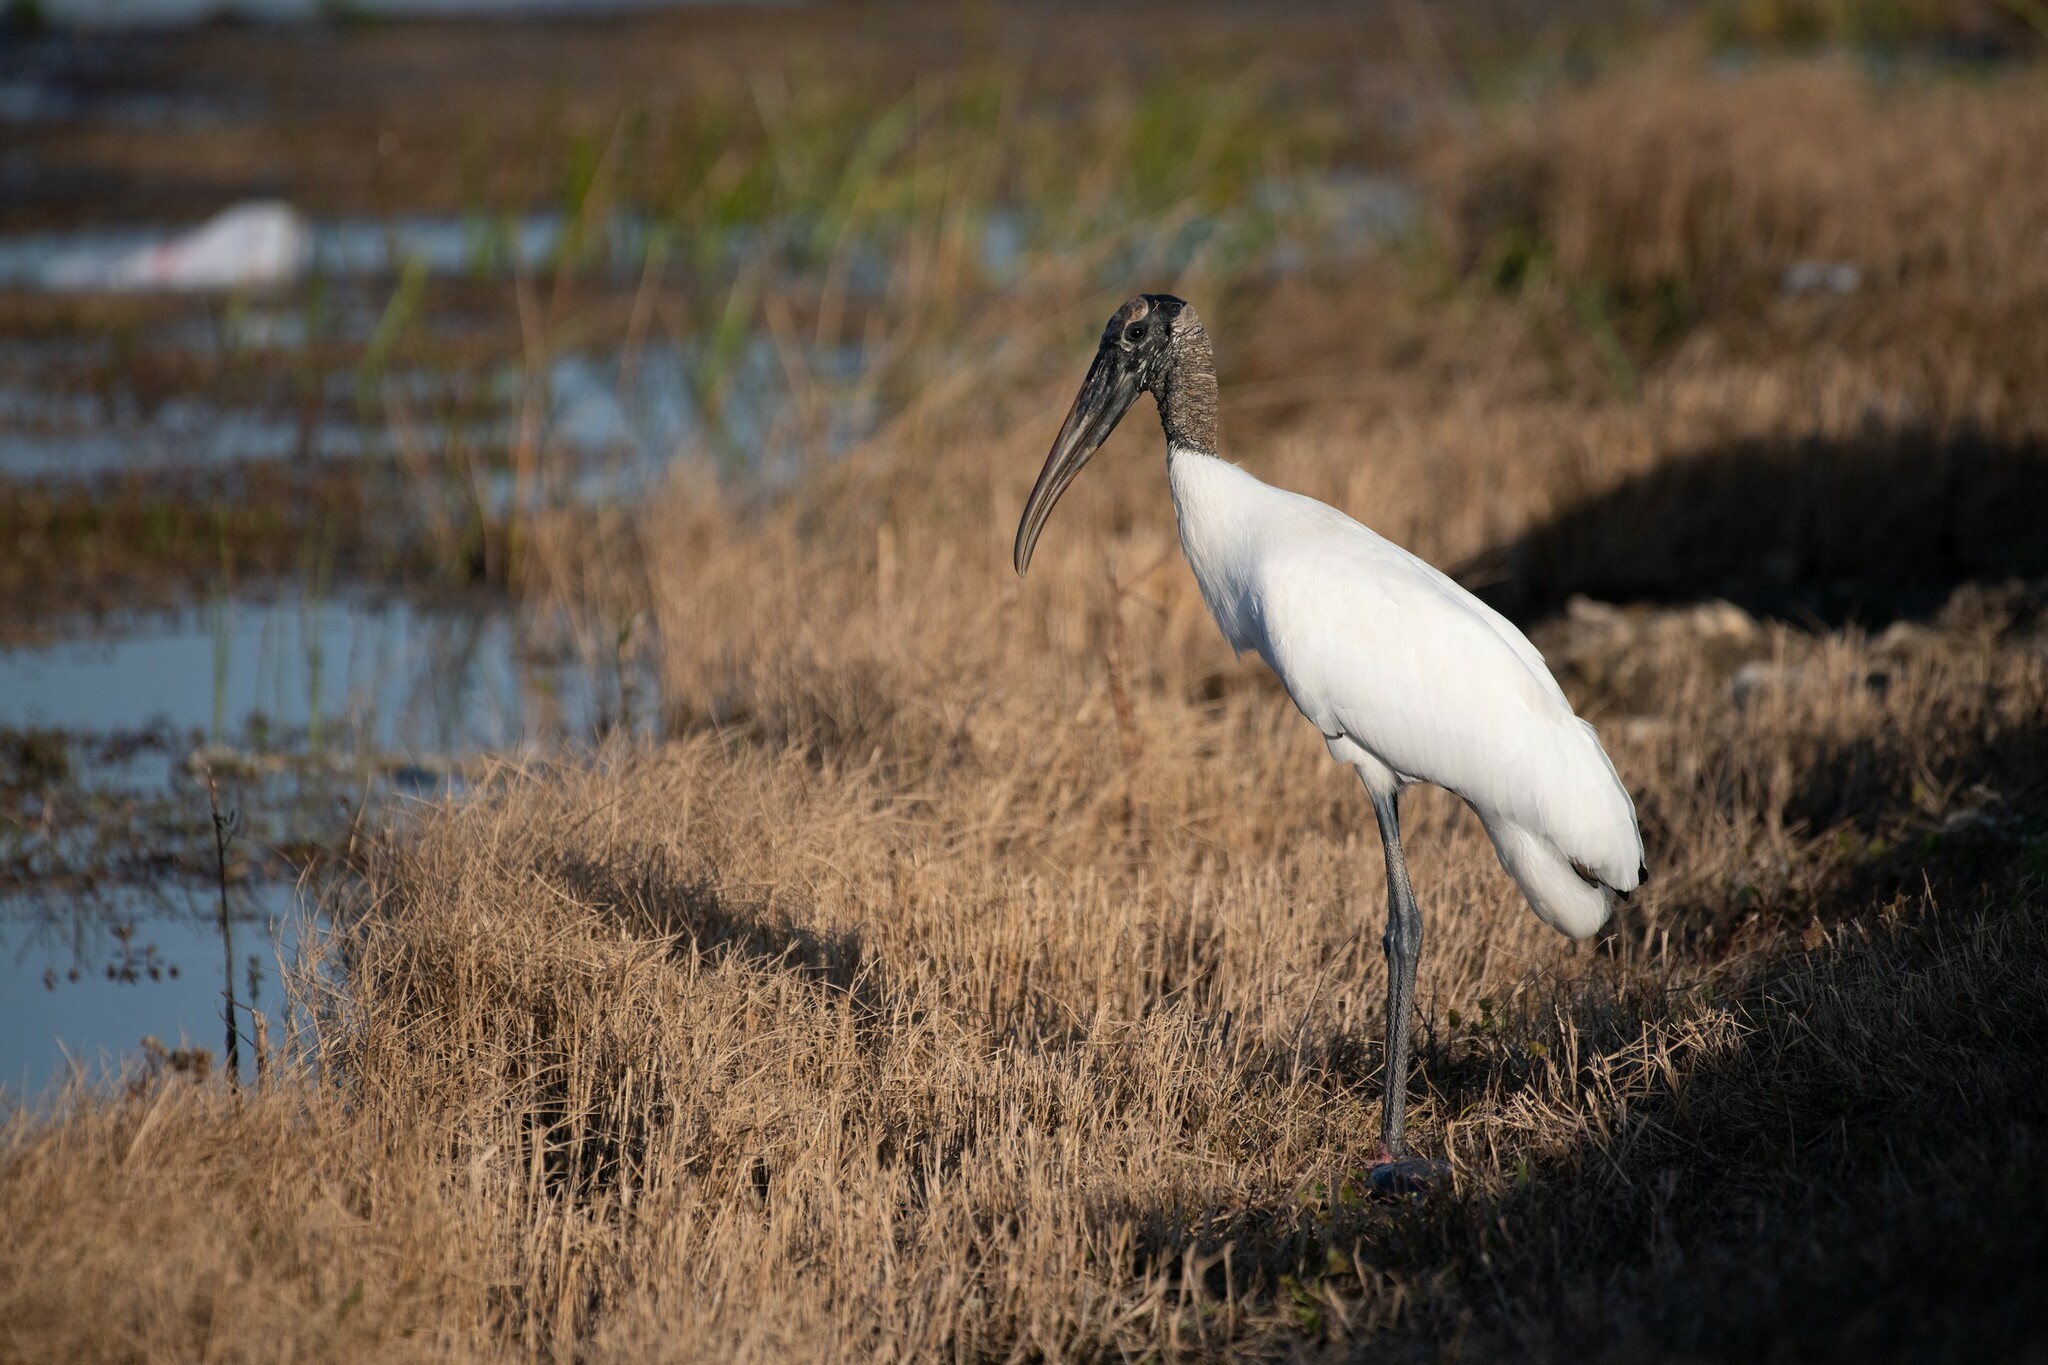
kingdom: Animalia
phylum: Chordata
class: Aves
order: Ciconiiformes
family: Ciconiidae
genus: Mycteria
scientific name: Mycteria americana
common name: Wood stork
